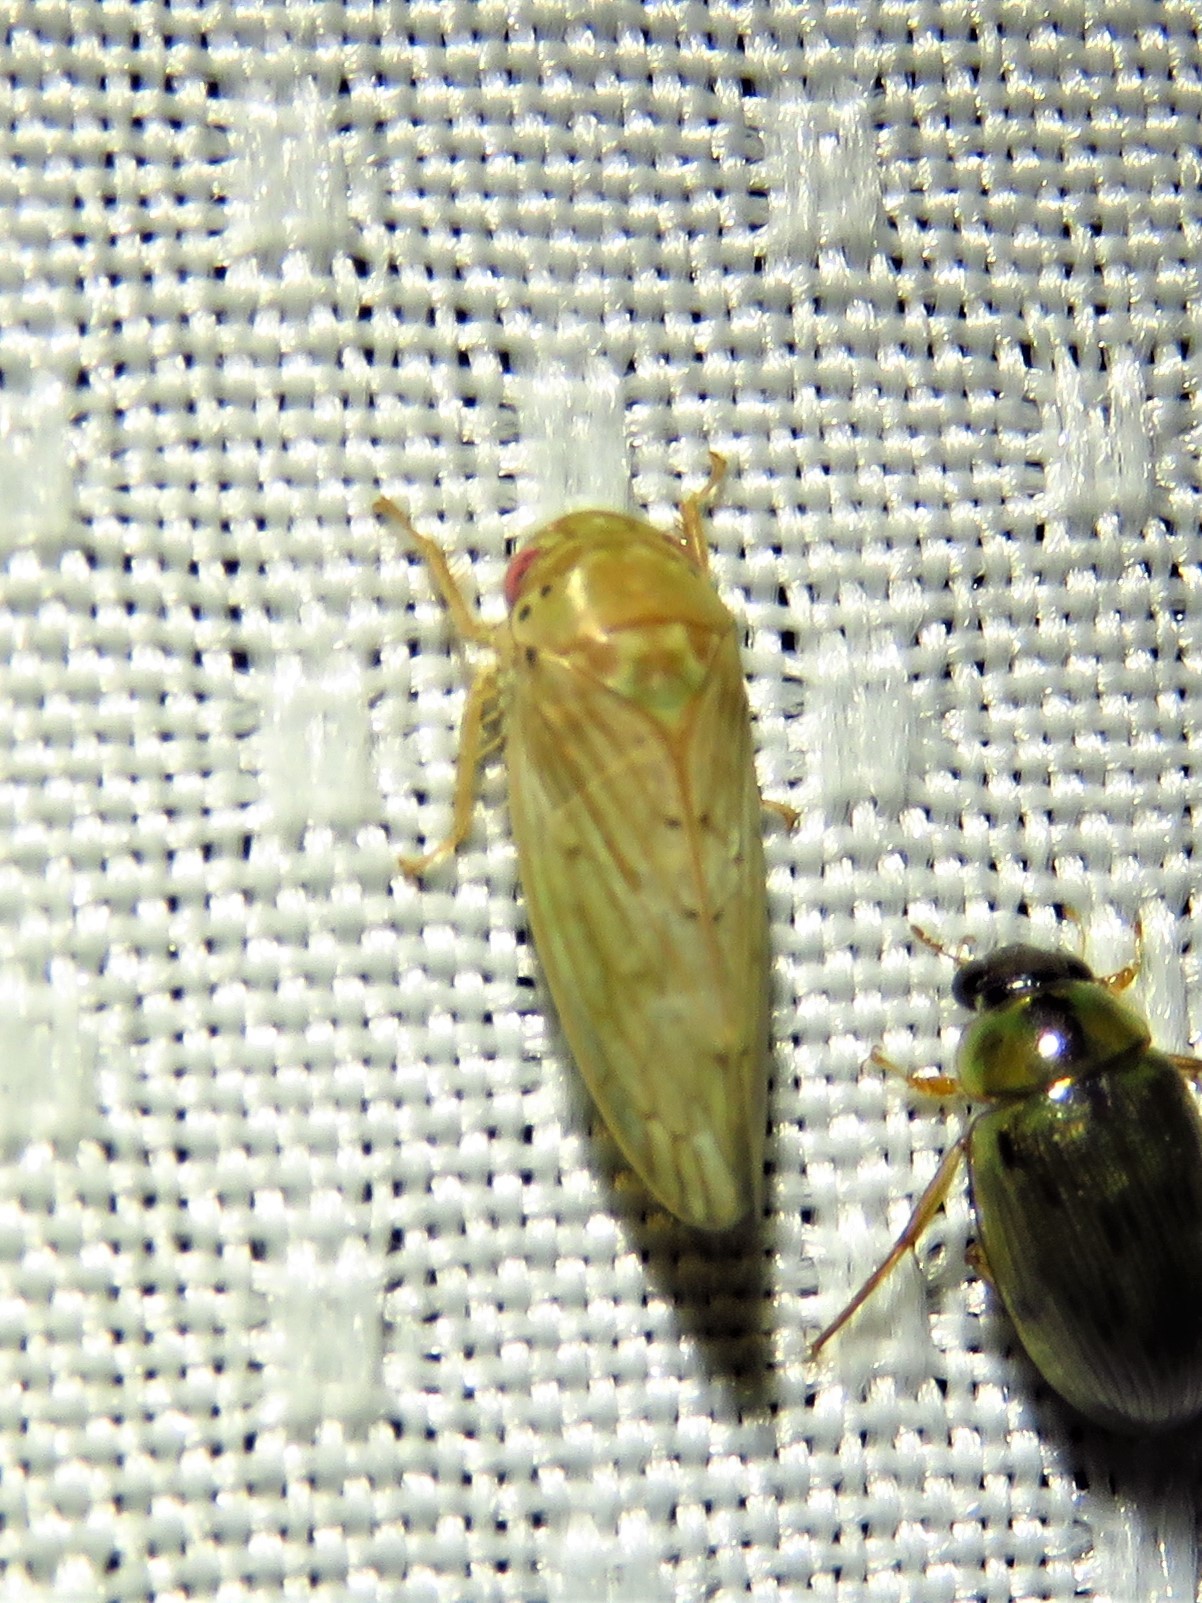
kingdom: Animalia
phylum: Arthropoda
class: Insecta
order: Hemiptera
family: Cicadellidae
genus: Polana
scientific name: Polana quadrinotata
